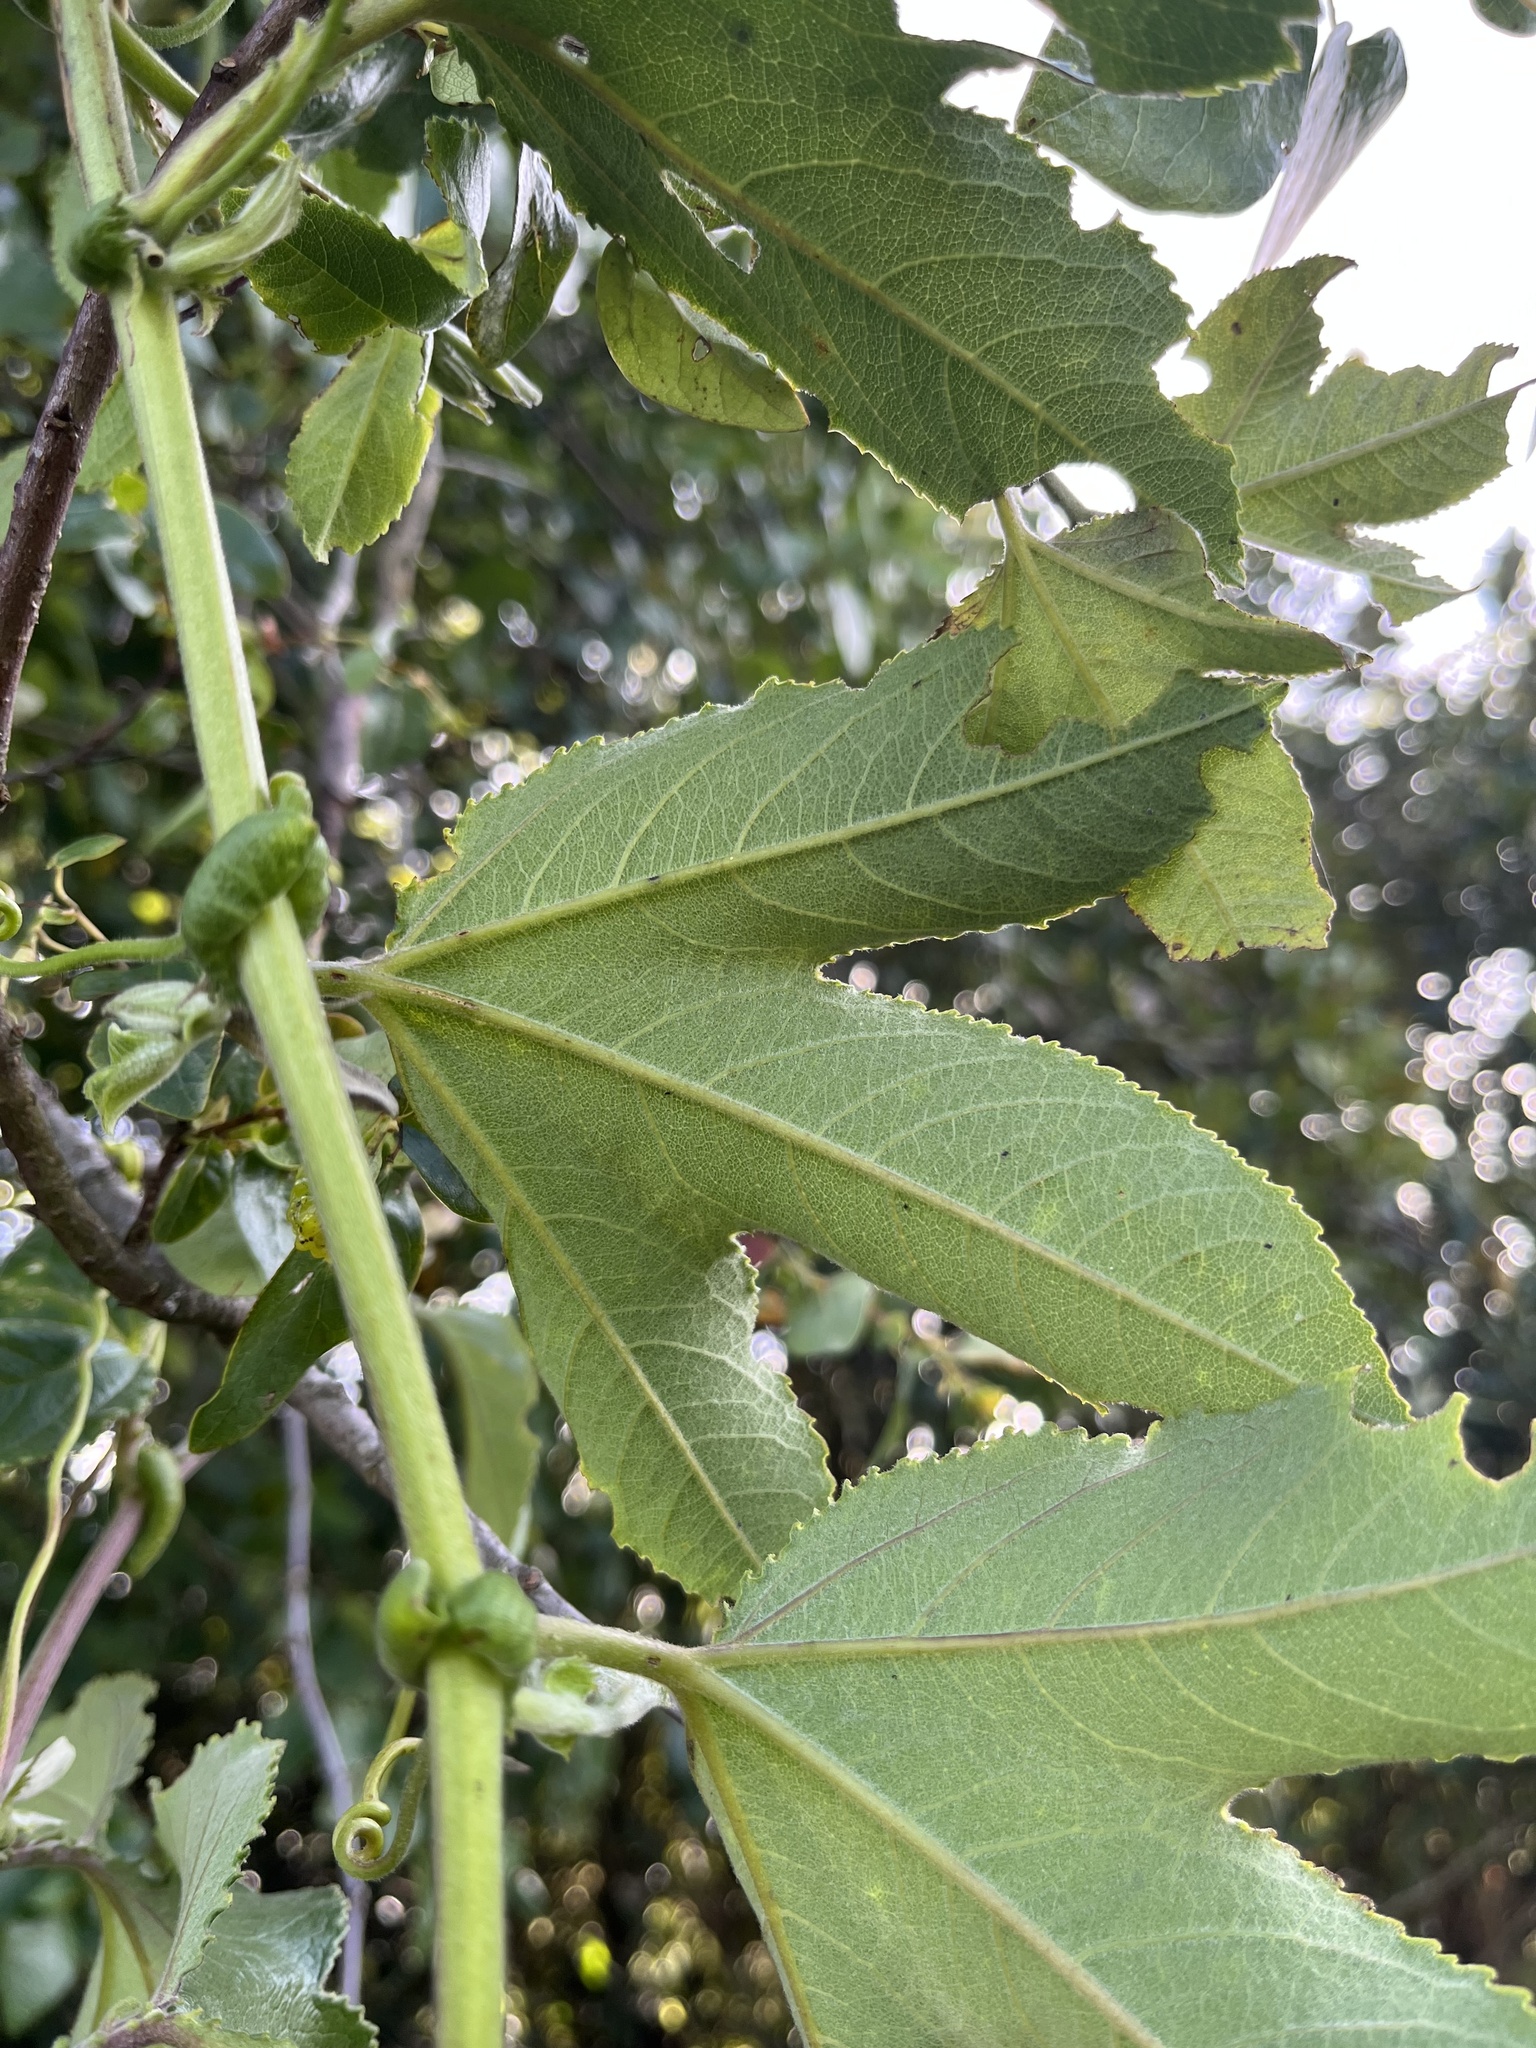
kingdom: Plantae
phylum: Tracheophyta
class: Magnoliopsida
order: Malpighiales
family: Passifloraceae
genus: Passiflora
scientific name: Passiflora mixta
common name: Passion flower
